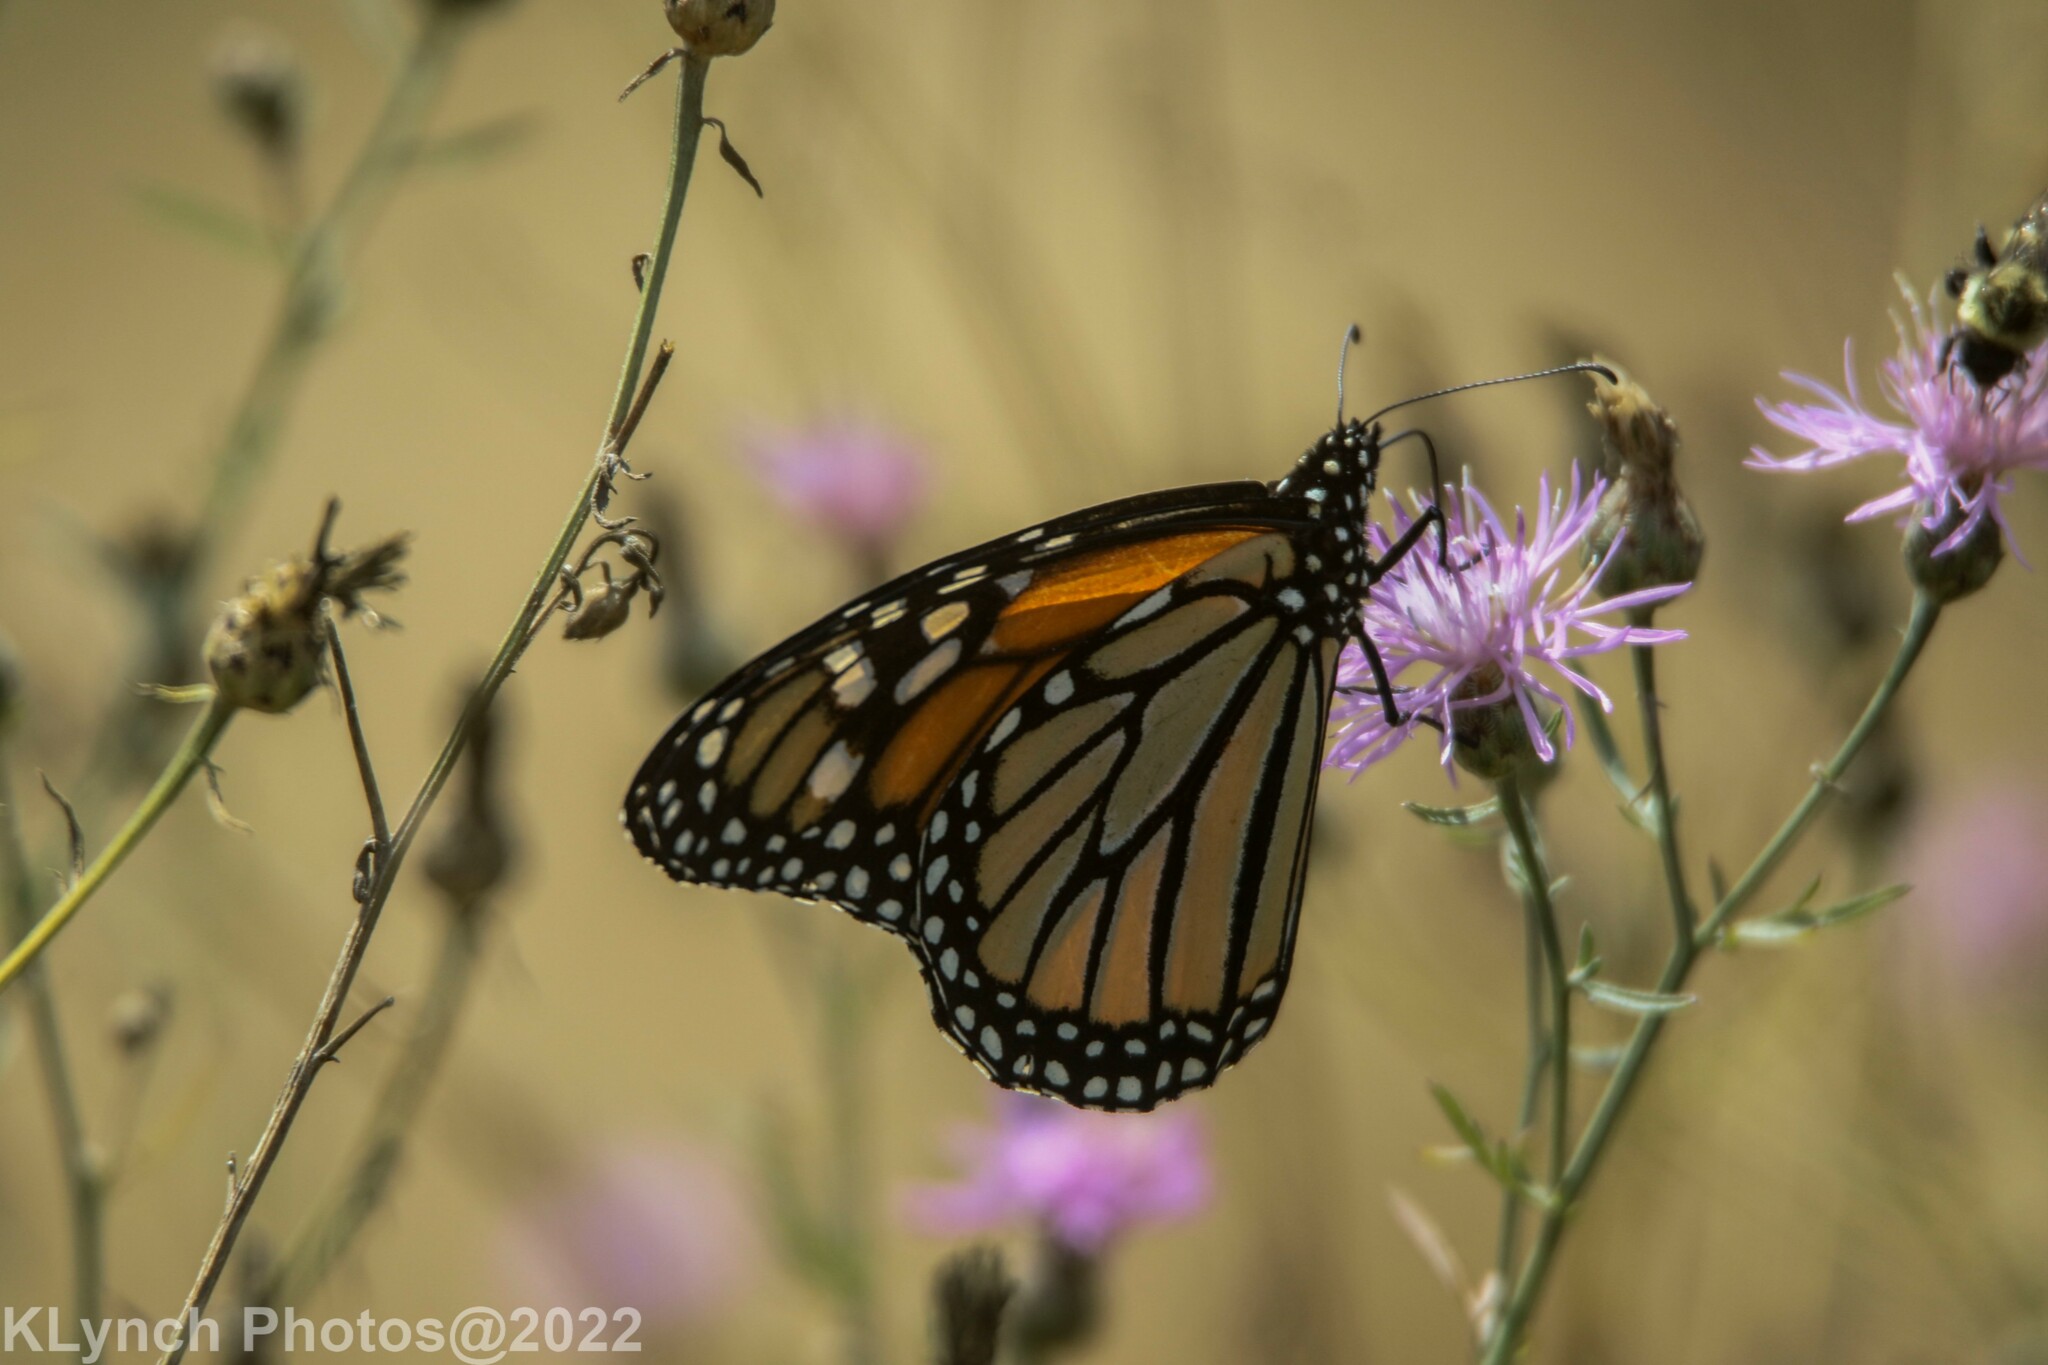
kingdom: Animalia
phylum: Arthropoda
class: Insecta
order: Lepidoptera
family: Nymphalidae
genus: Danaus
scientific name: Danaus plexippus
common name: Monarch
